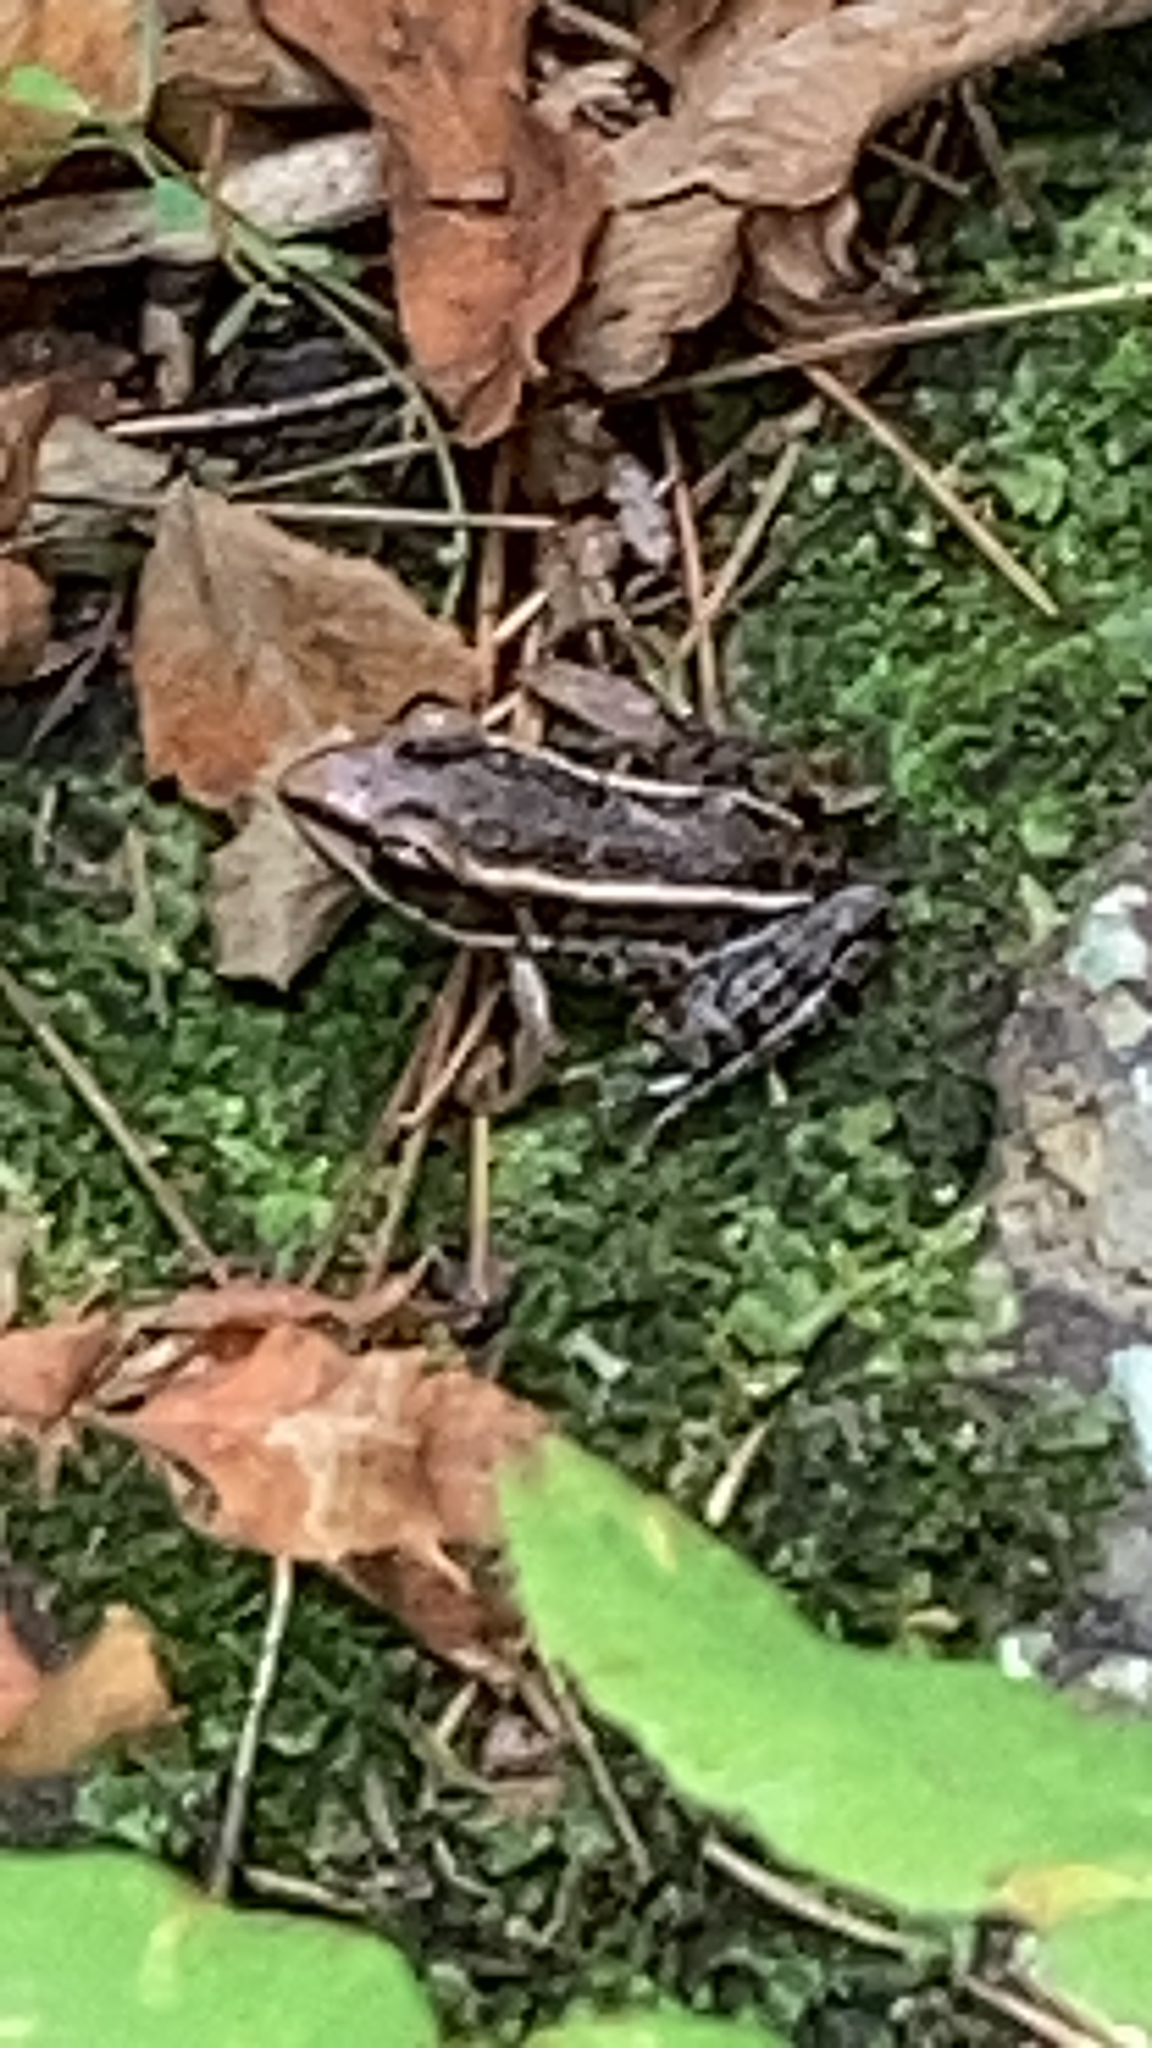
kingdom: Animalia
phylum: Chordata
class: Amphibia
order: Anura
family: Ranidae
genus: Lithobates
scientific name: Lithobates palustris
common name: Pickerel frog
